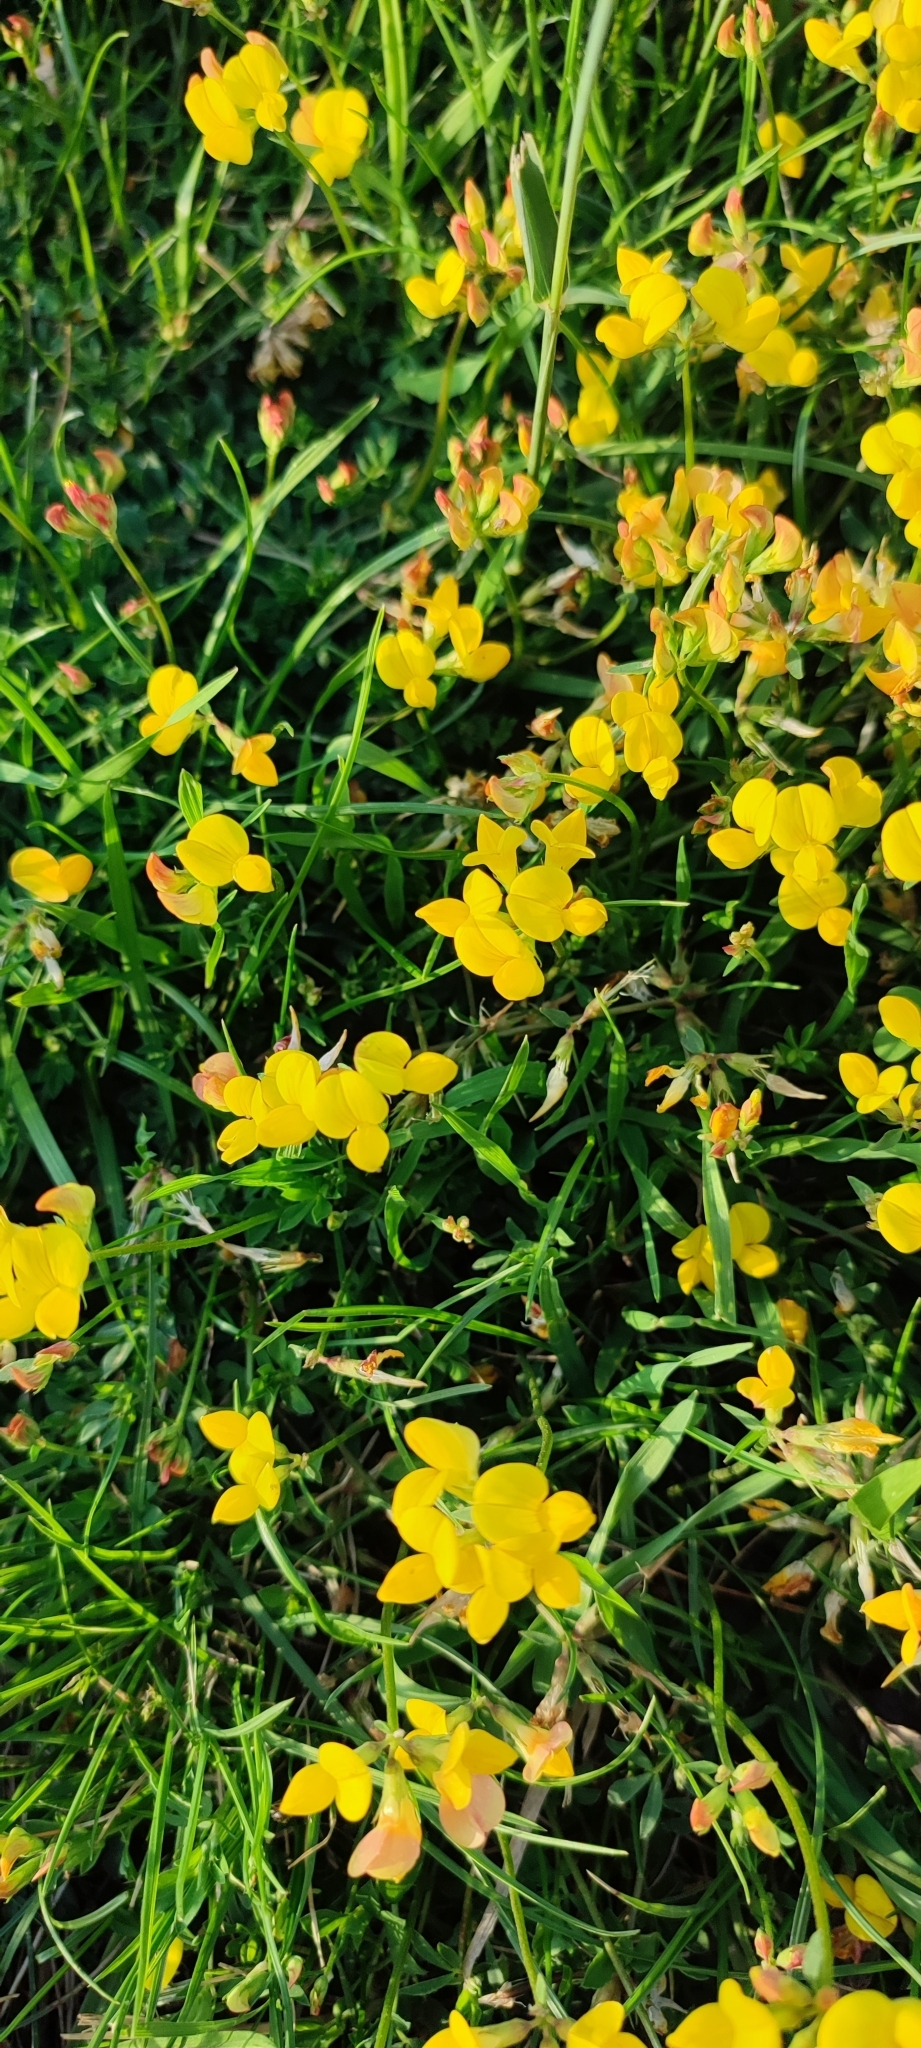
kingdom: Plantae
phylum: Tracheophyta
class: Magnoliopsida
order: Fabales
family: Fabaceae
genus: Lotus
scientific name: Lotus corniculatus
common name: Common bird's-foot-trefoil
